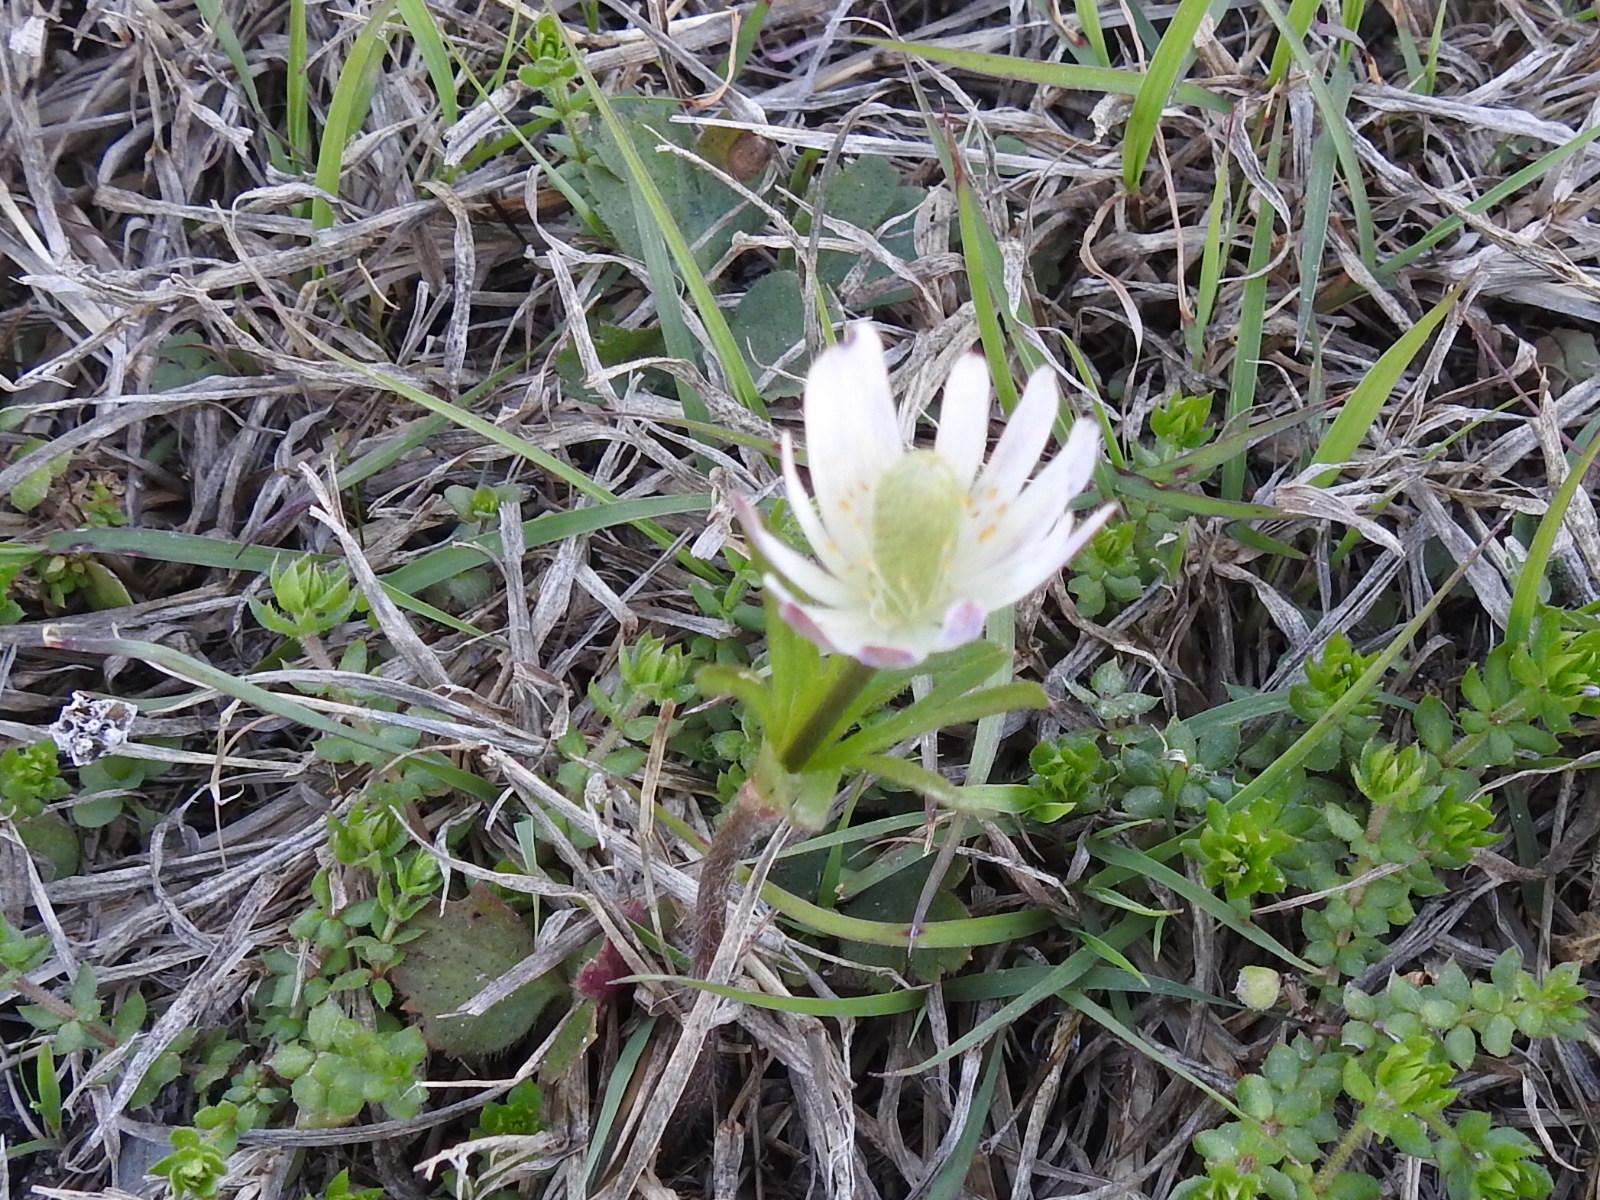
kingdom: Plantae
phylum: Tracheophyta
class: Magnoliopsida
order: Ranunculales
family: Ranunculaceae
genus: Anemone
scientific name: Anemone berlandieri
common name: Ten-petal anemone
